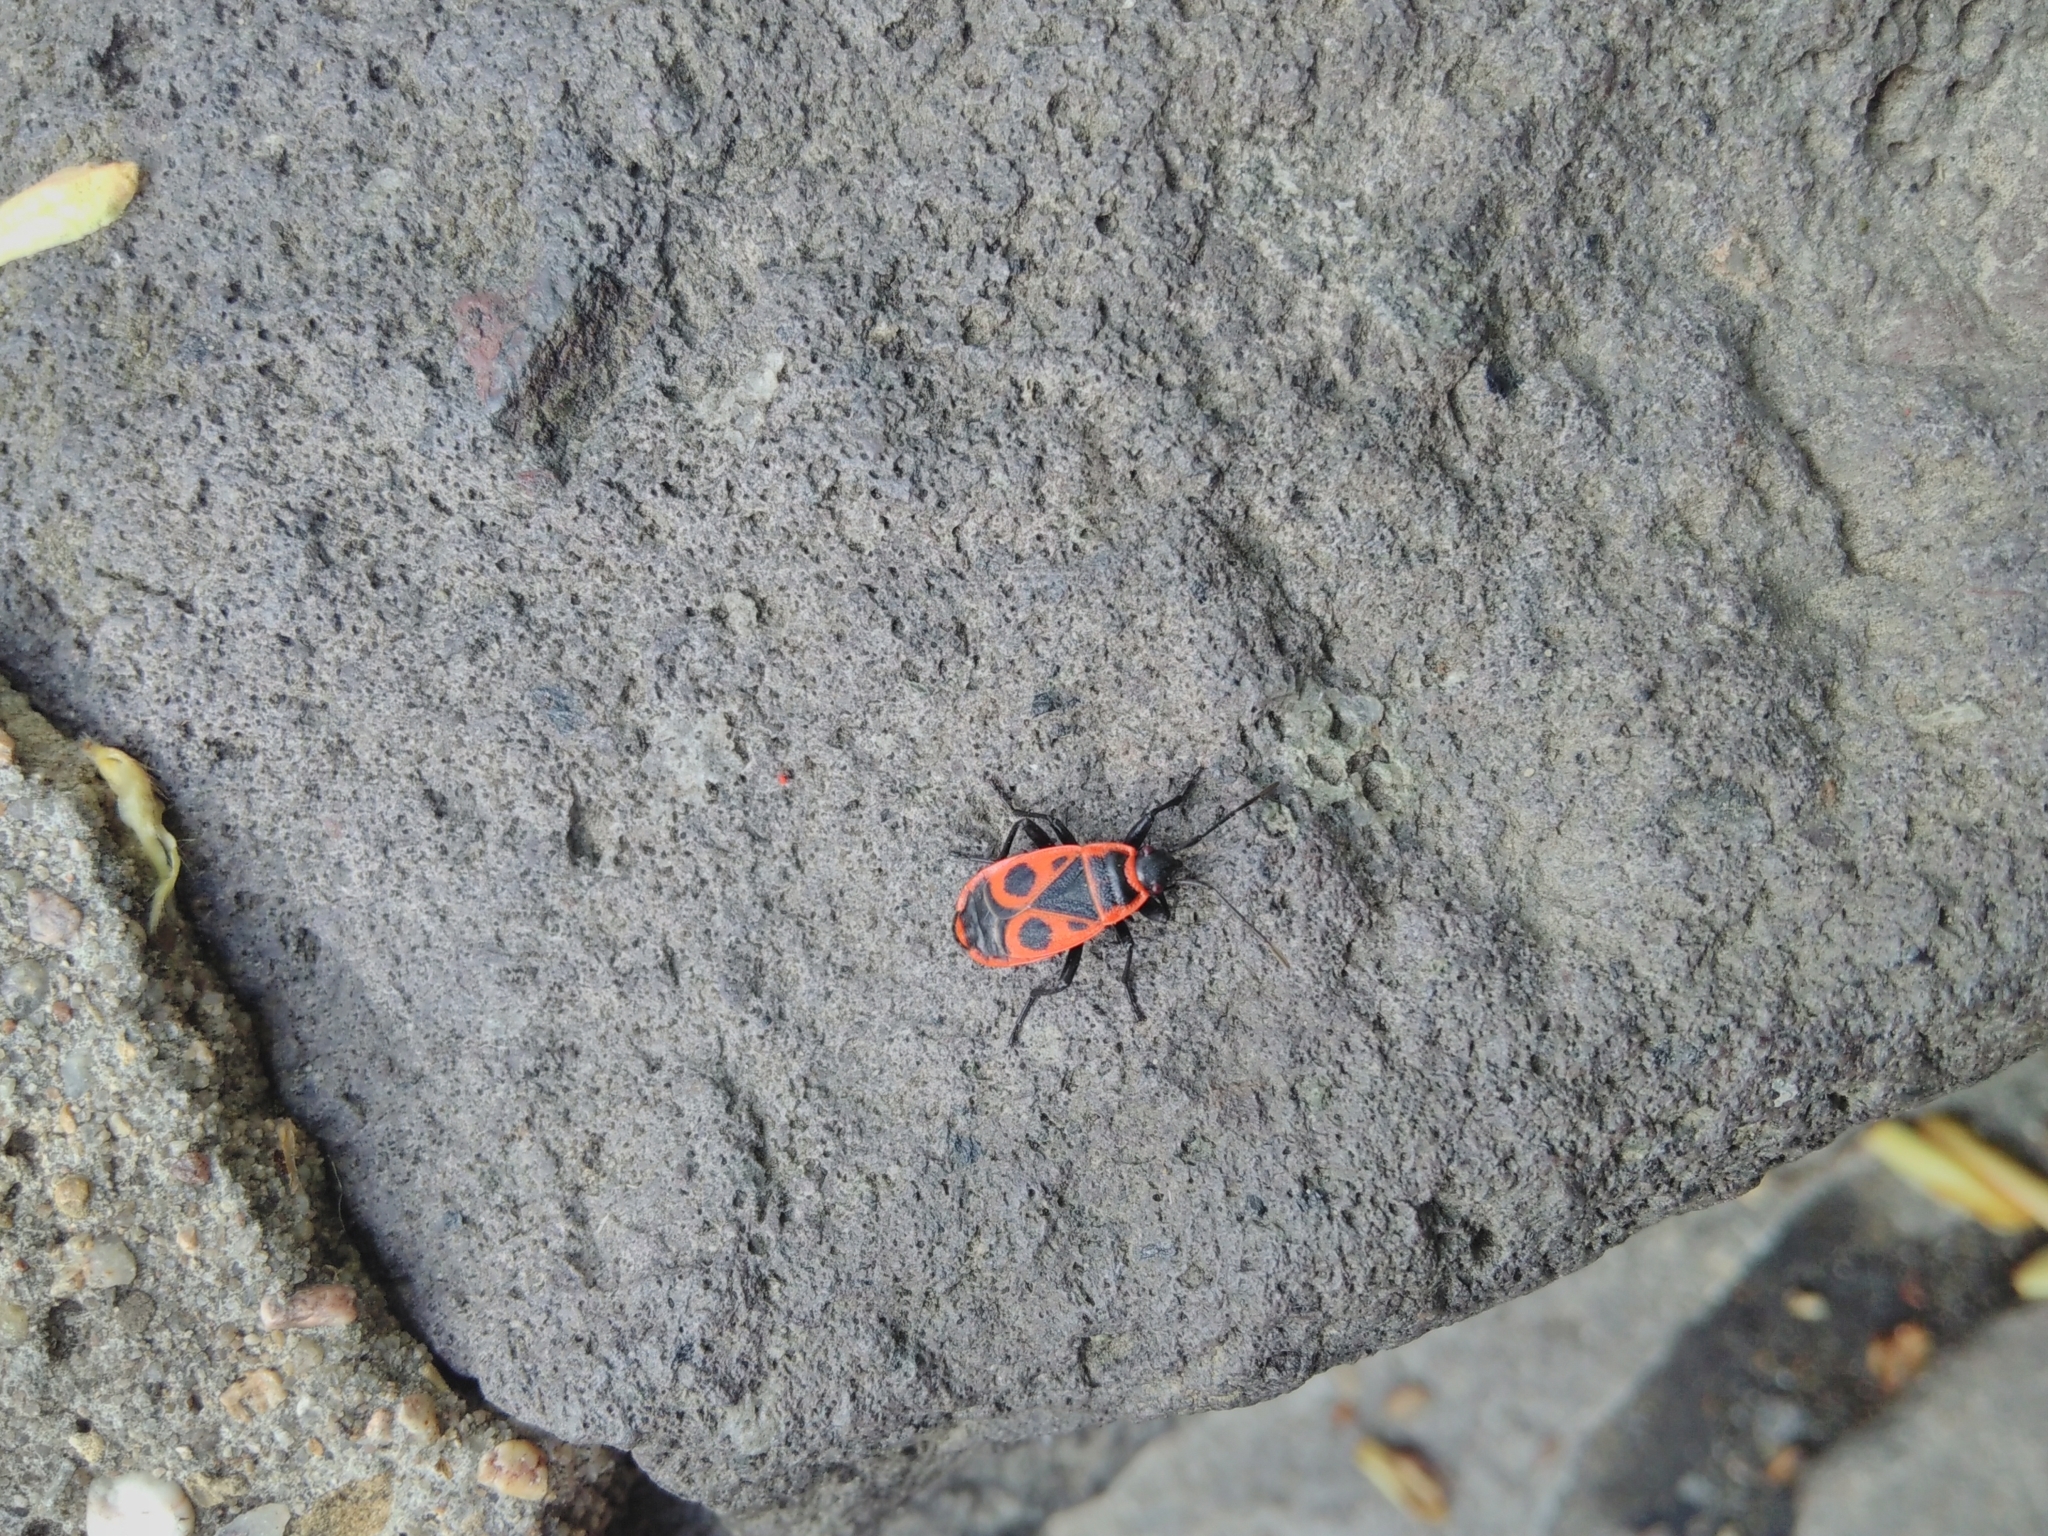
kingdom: Animalia
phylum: Arthropoda
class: Insecta
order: Hemiptera
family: Pyrrhocoridae
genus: Pyrrhocoris
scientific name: Pyrrhocoris apterus
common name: Firebug
